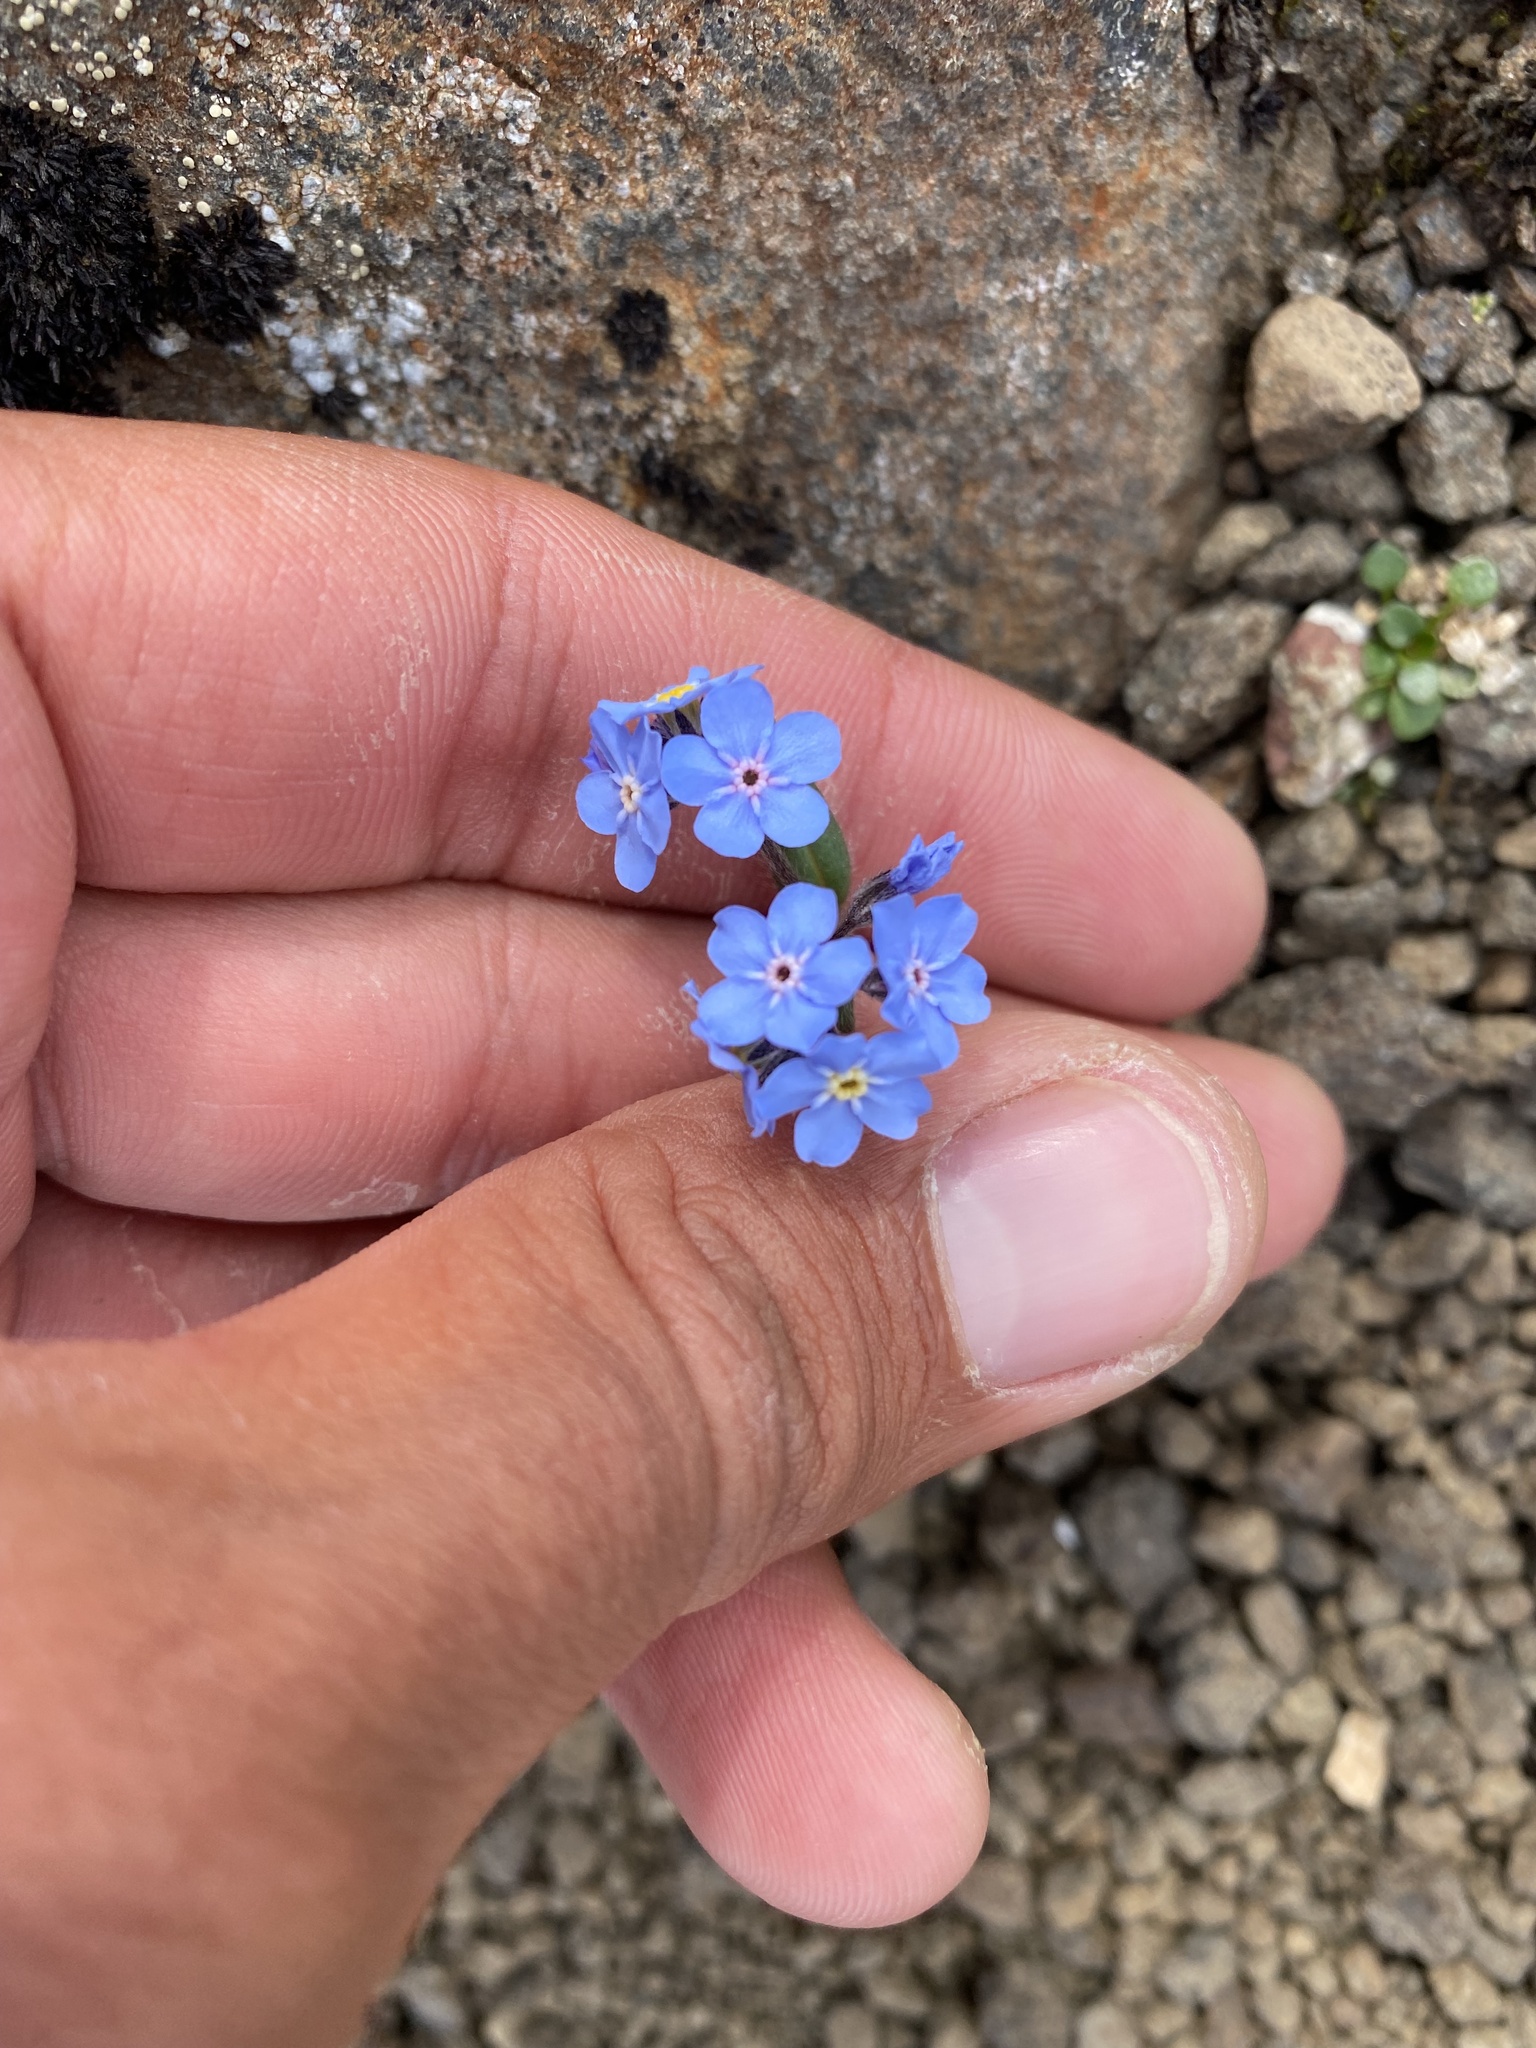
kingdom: Plantae
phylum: Tracheophyta
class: Magnoliopsida
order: Boraginales
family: Boraginaceae
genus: Myosotis
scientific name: Myosotis asiatica
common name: Asian forget-me-not
